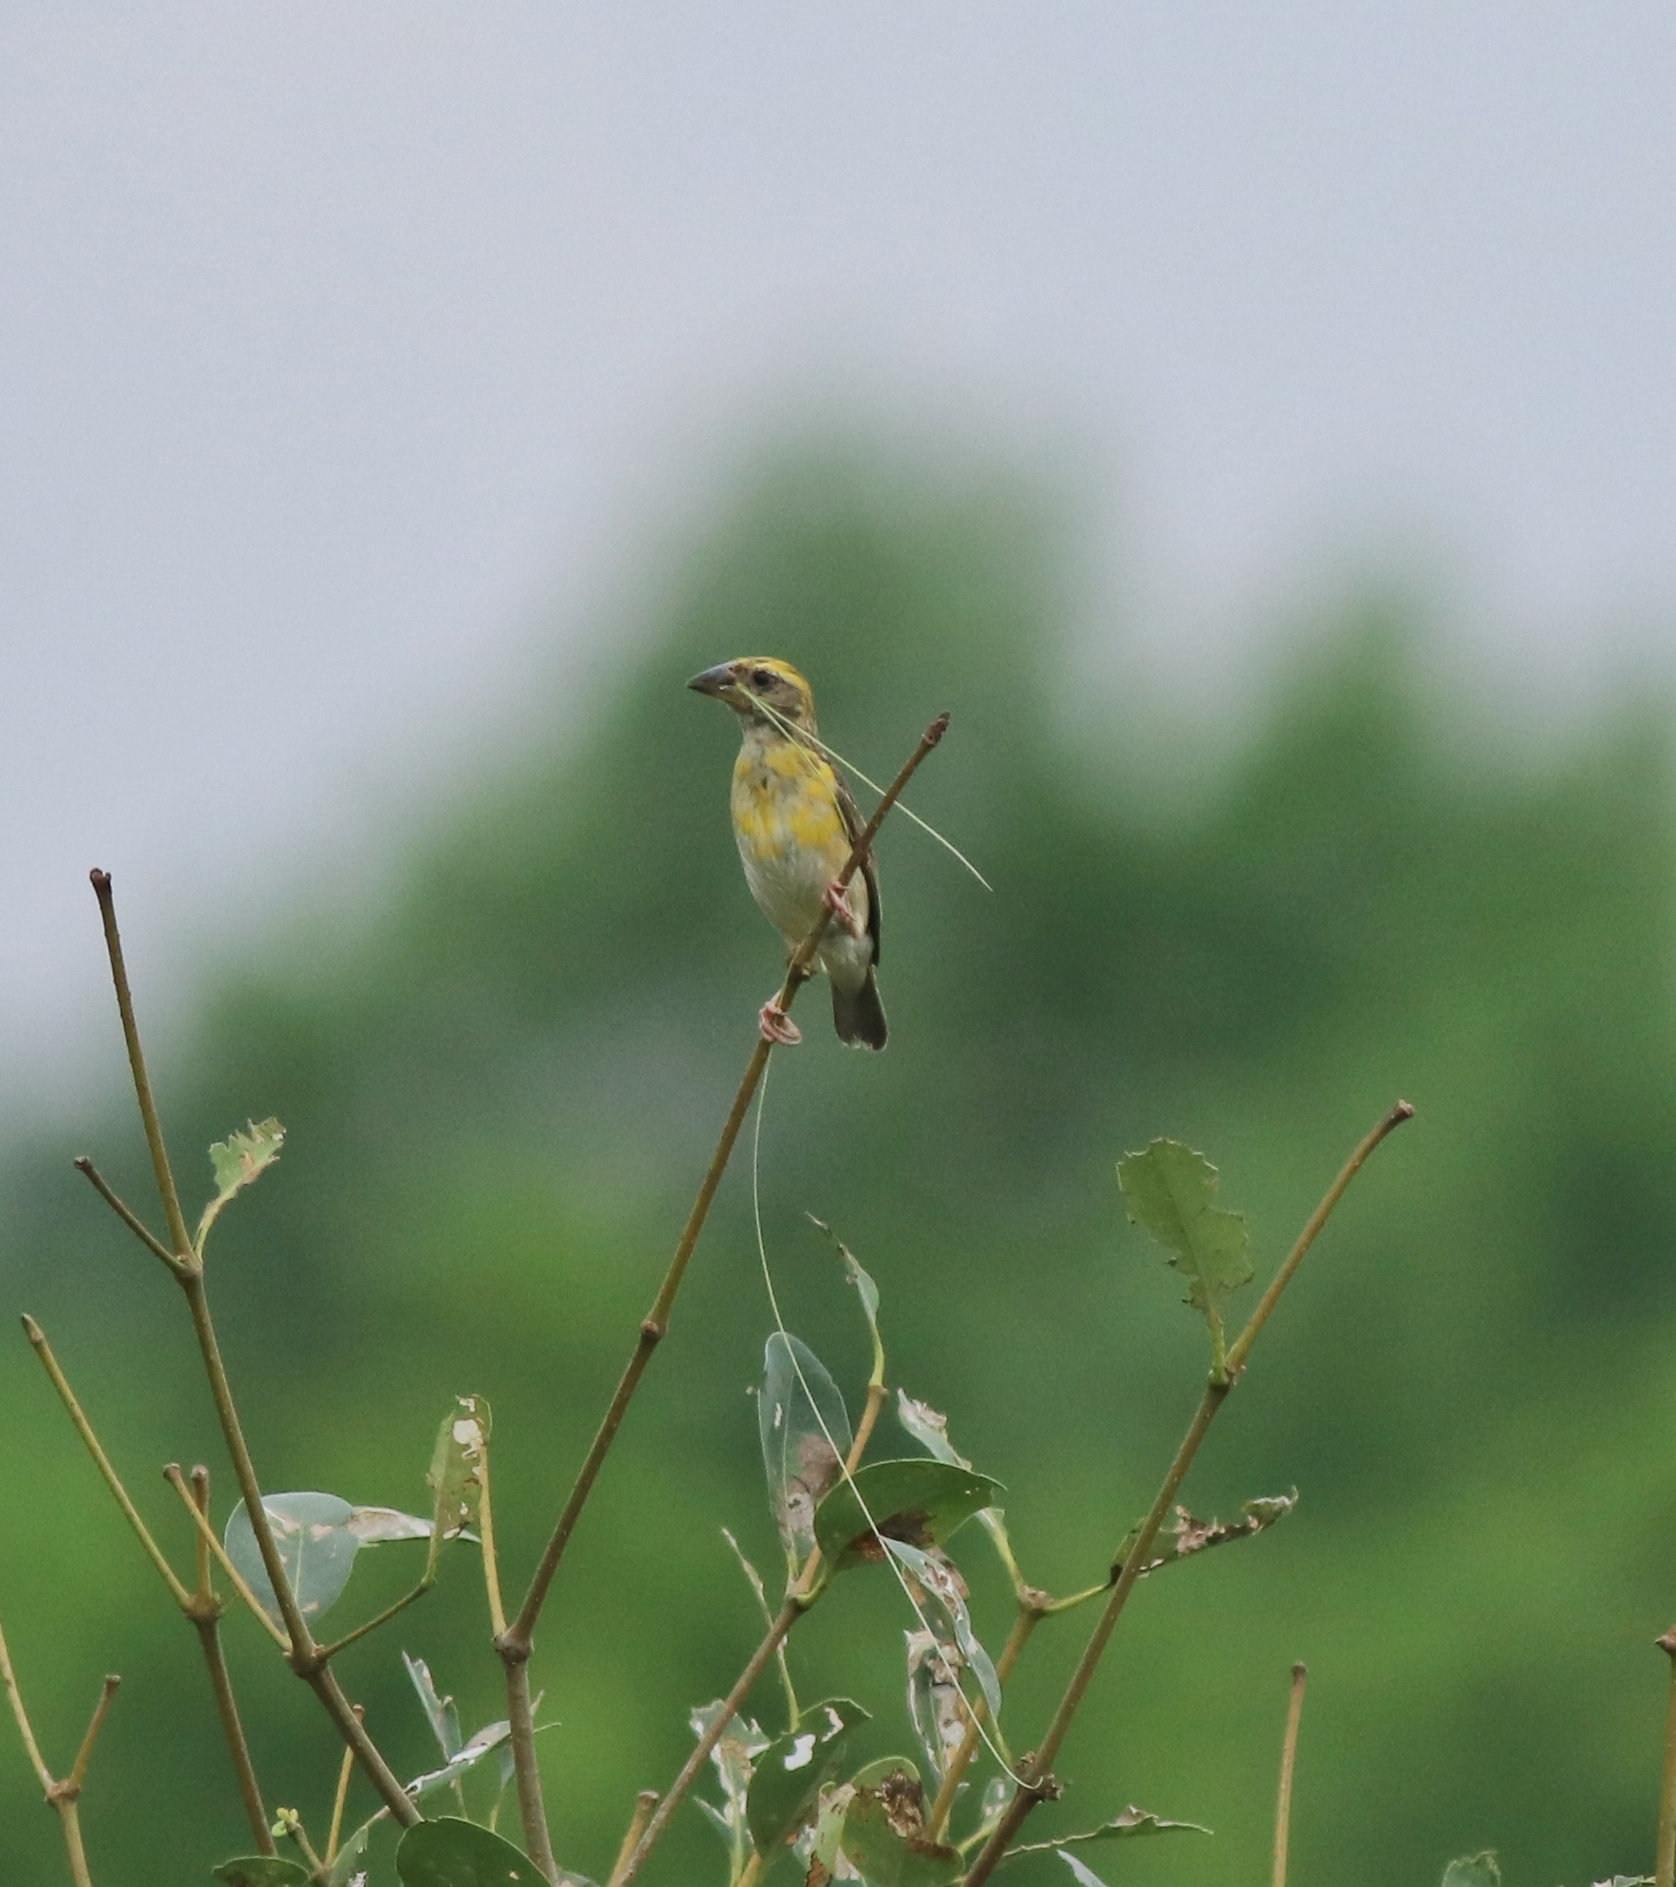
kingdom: Animalia
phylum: Chordata
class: Aves
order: Passeriformes
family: Ploceidae
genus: Ploceus
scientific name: Ploceus philippinus
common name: Baya weaver
